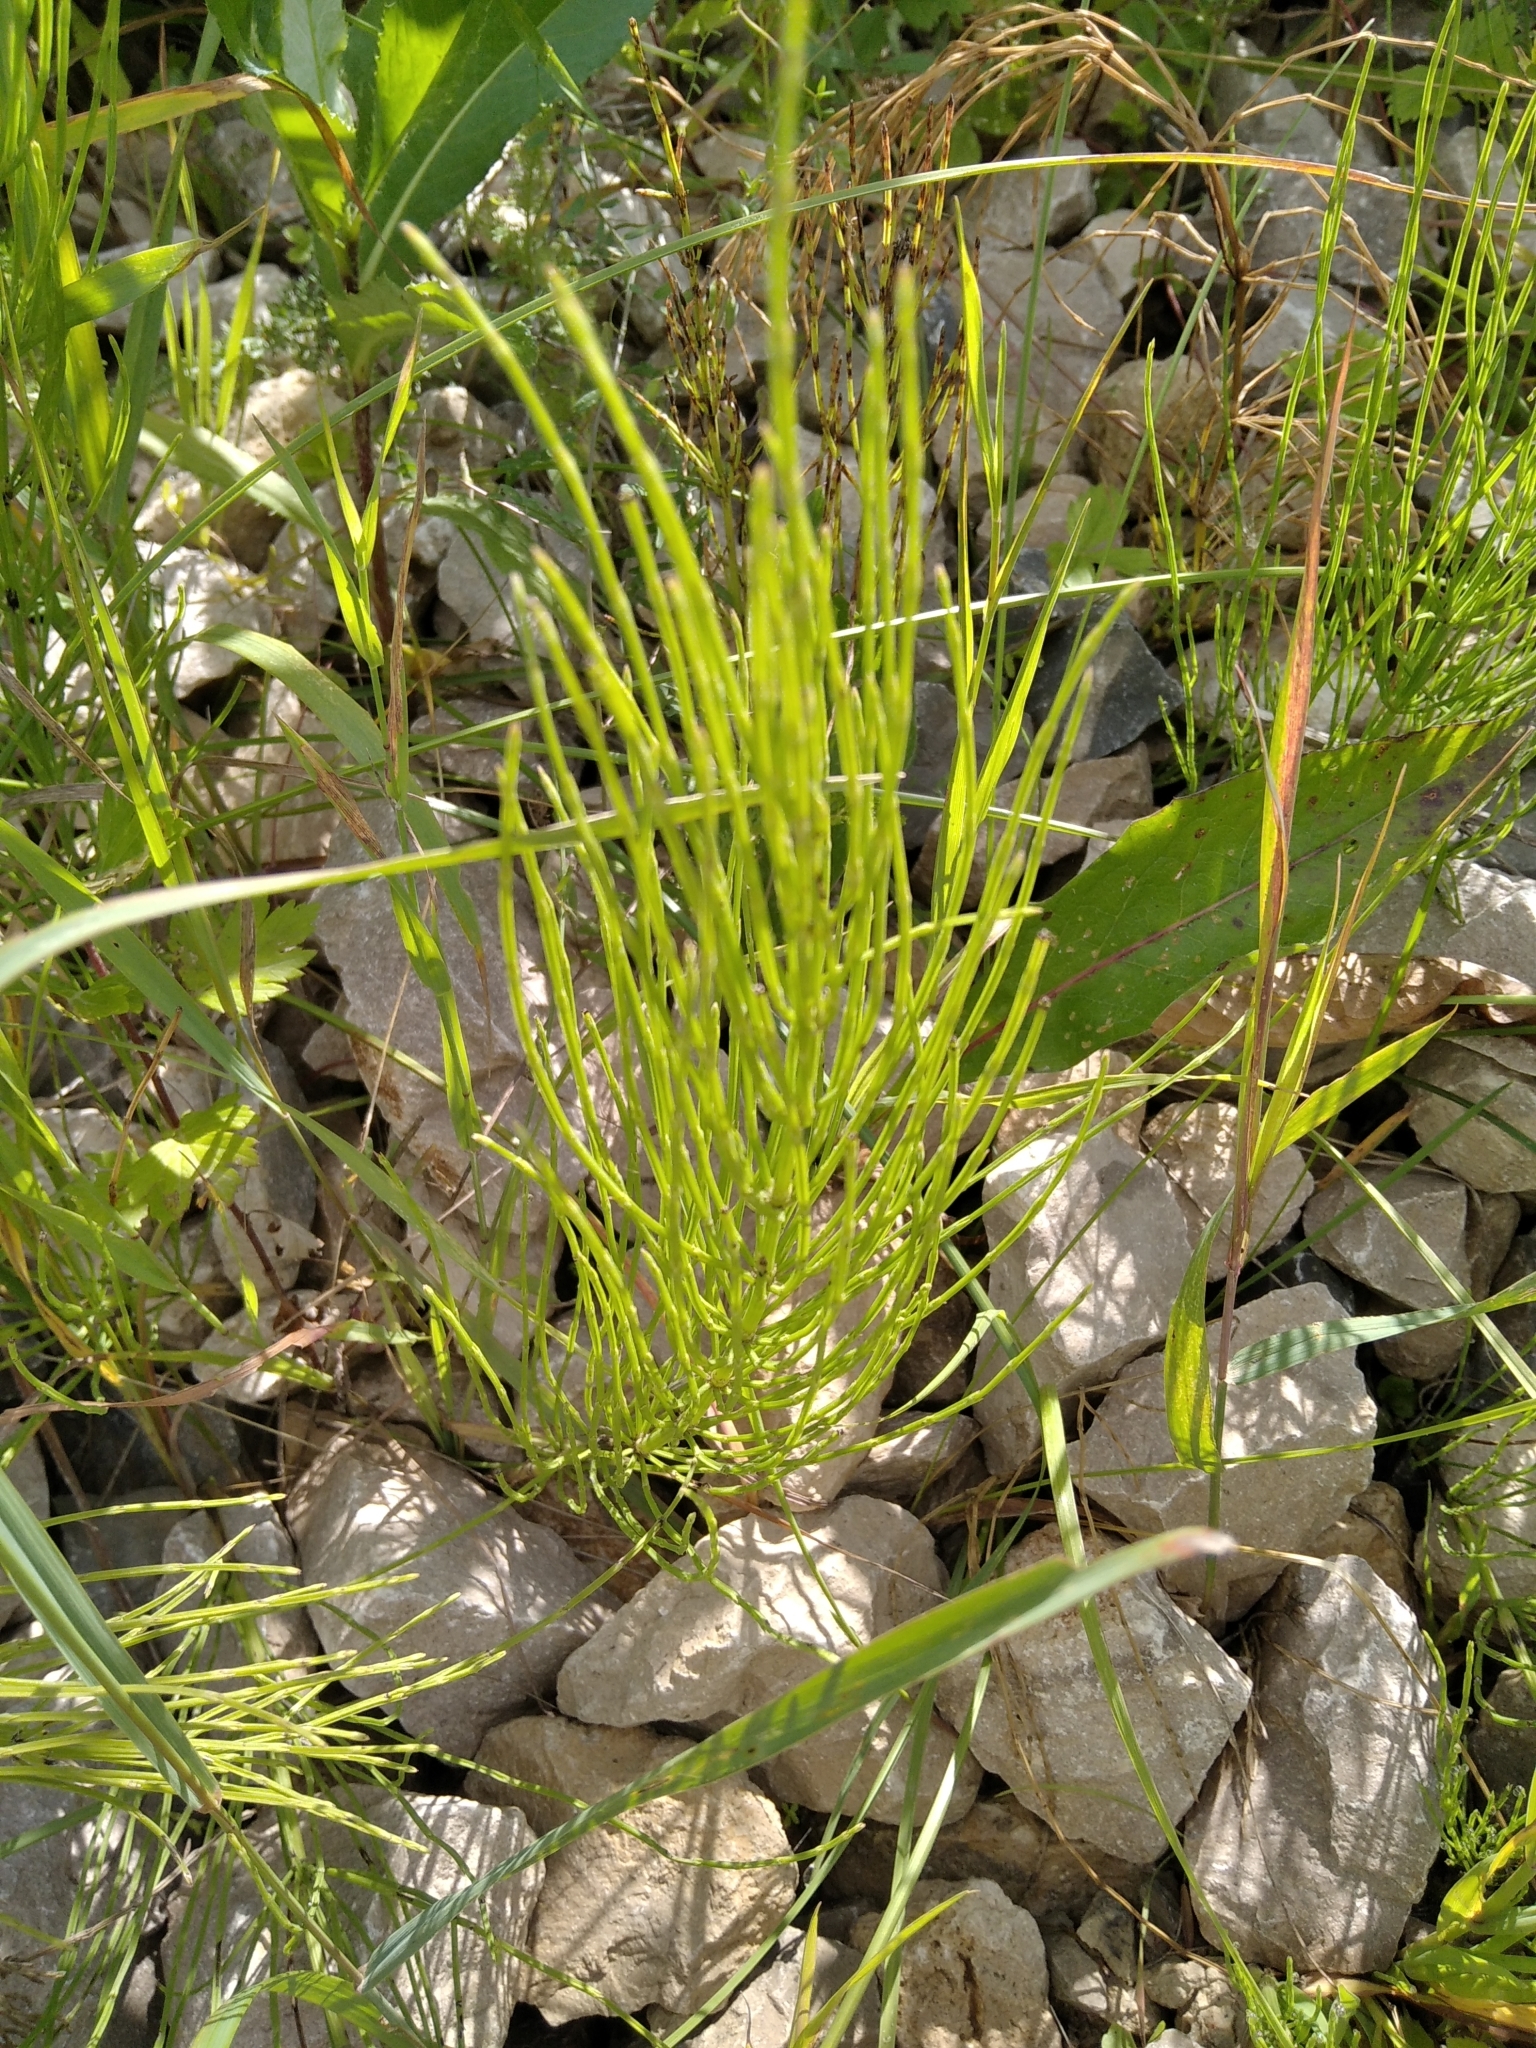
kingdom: Plantae
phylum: Tracheophyta
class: Polypodiopsida
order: Equisetales
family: Equisetaceae
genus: Equisetum
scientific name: Equisetum arvense
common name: Field horsetail
